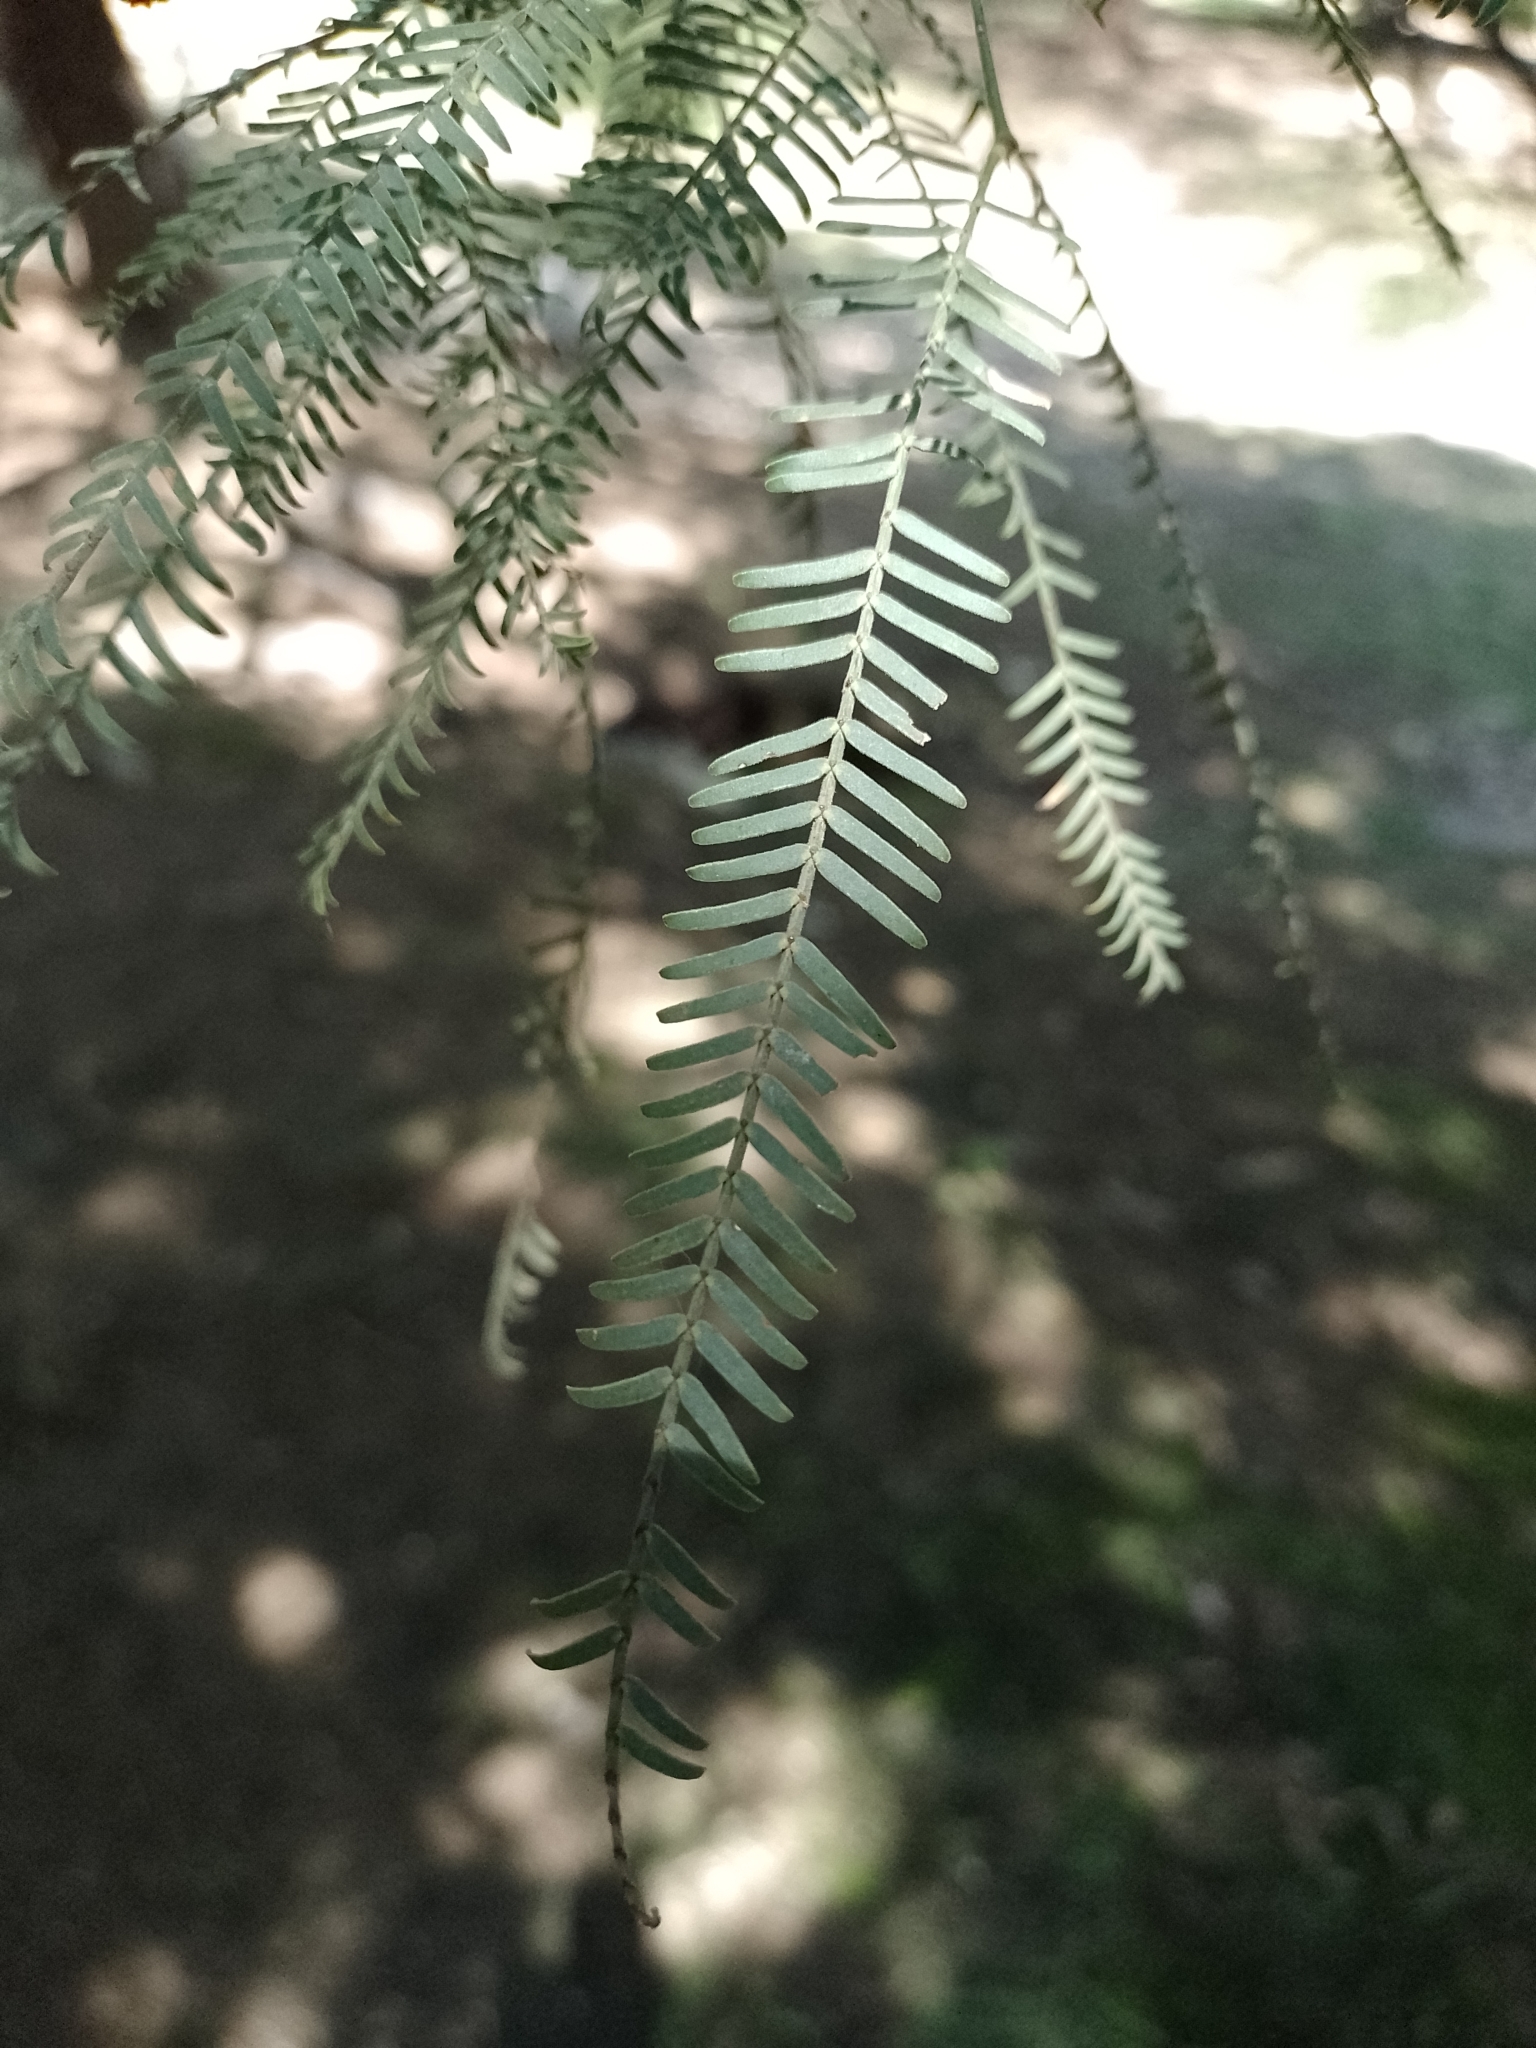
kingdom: Plantae
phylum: Tracheophyta
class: Magnoliopsida
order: Fabales
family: Fabaceae
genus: Prosopis
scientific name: Prosopis alba
